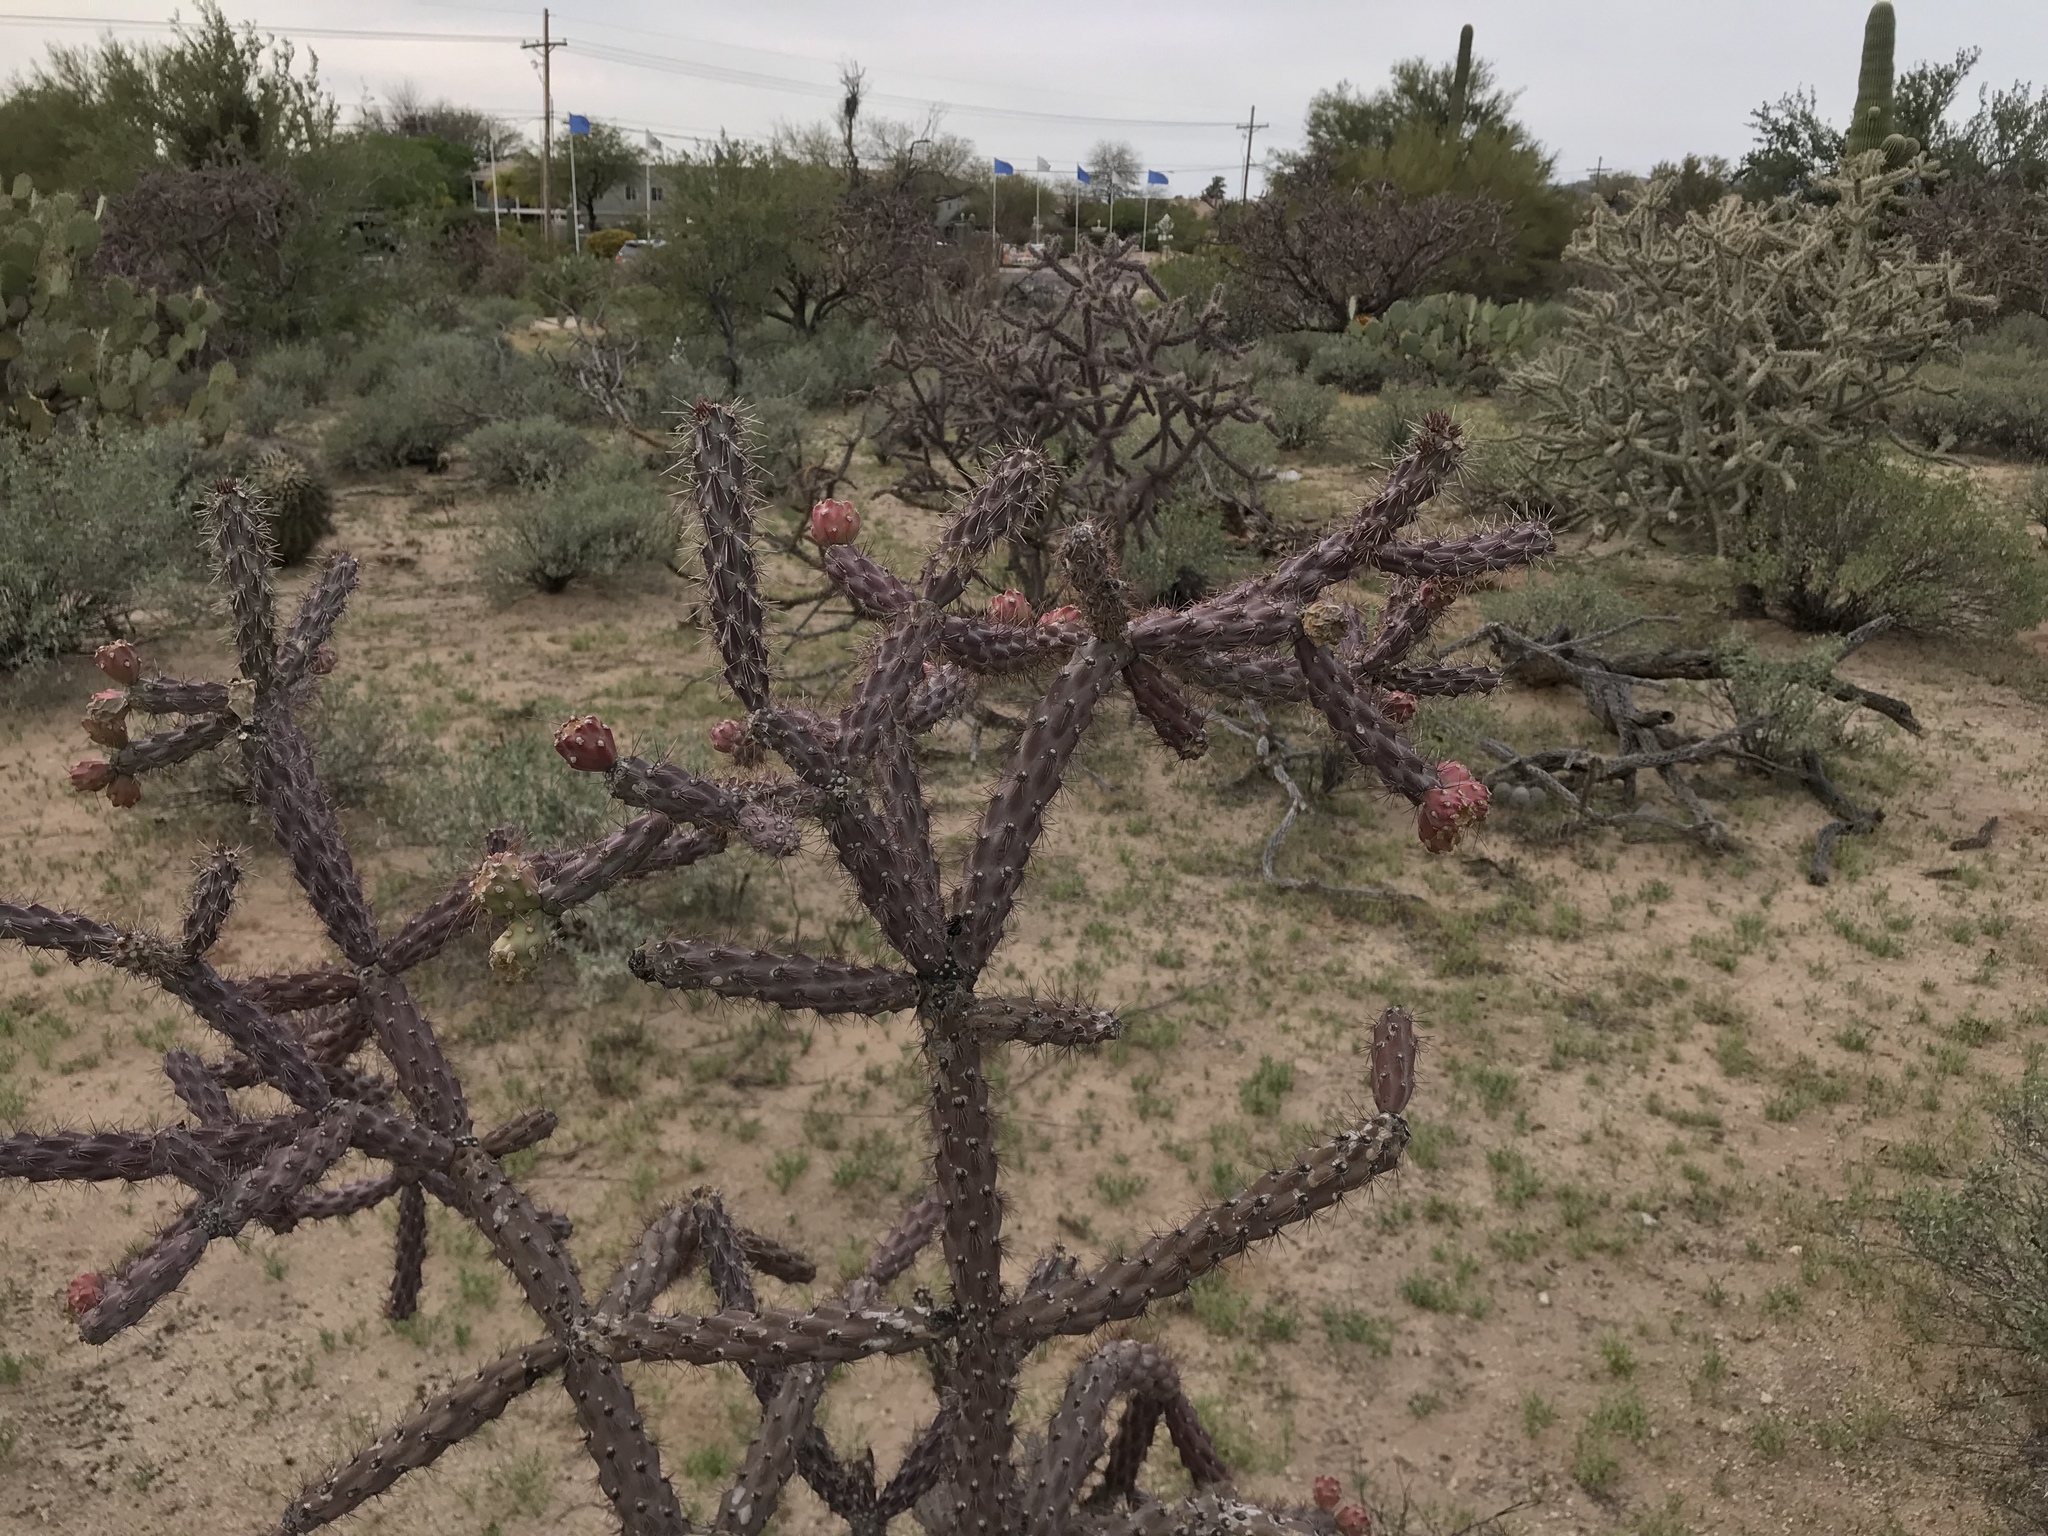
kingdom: Plantae
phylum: Tracheophyta
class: Magnoliopsida
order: Caryophyllales
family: Cactaceae
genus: Cylindropuntia
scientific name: Cylindropuntia thurberi
